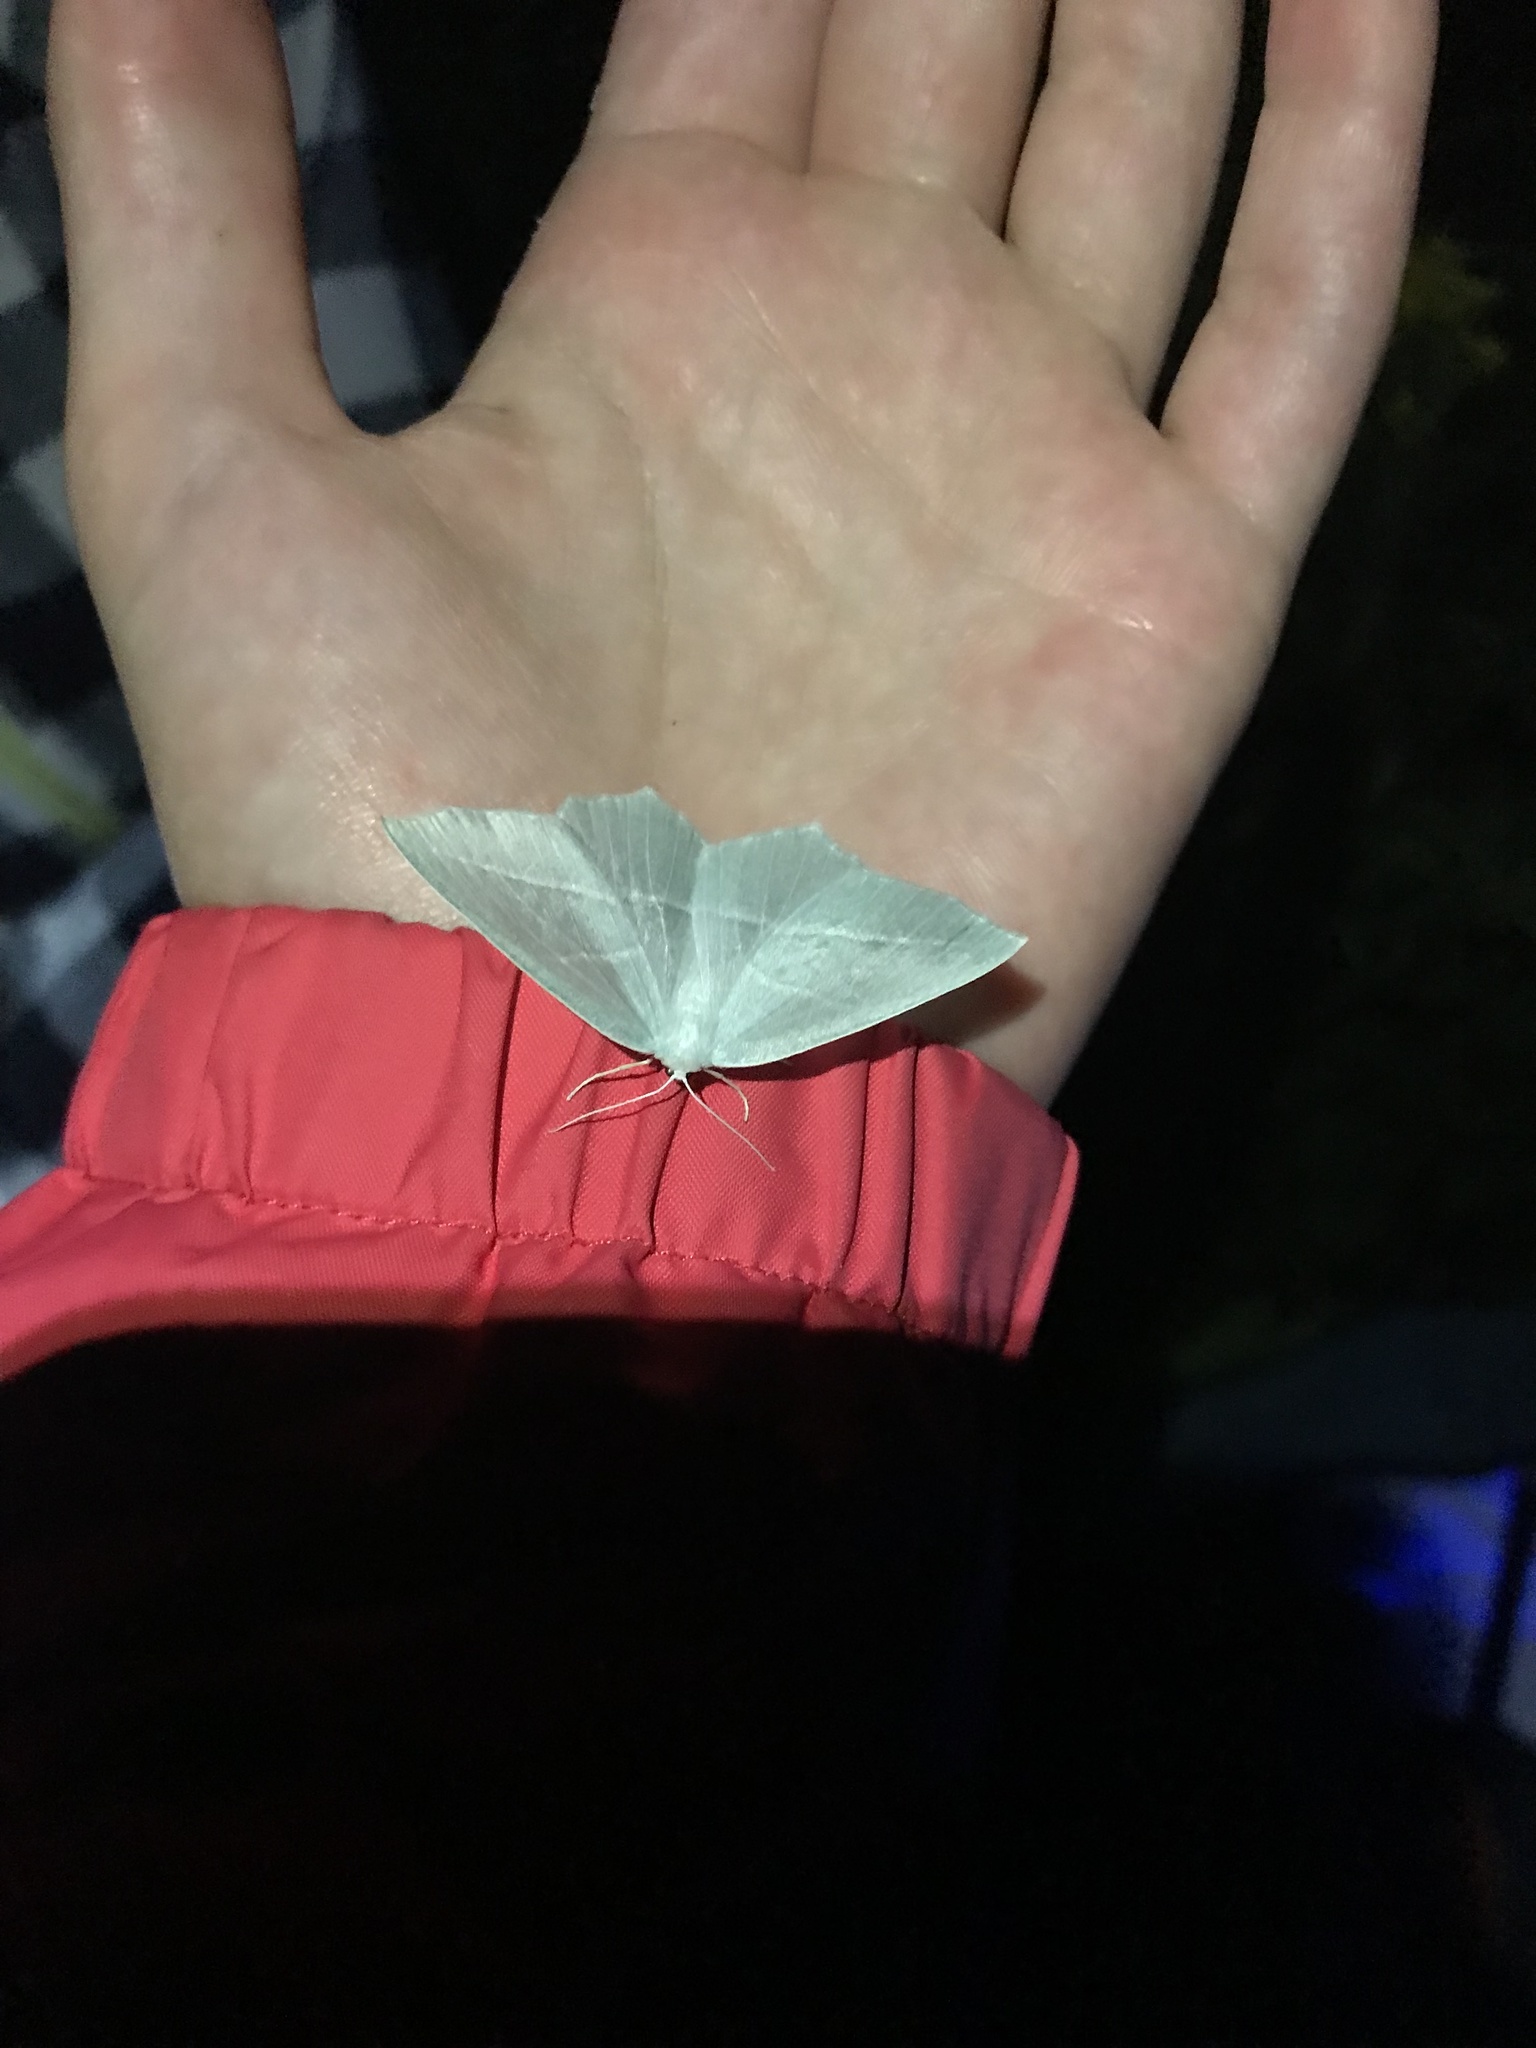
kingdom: Animalia
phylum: Arthropoda
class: Insecta
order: Lepidoptera
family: Geometridae
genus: Campaea
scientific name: Campaea perlata
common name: Fringed looper
